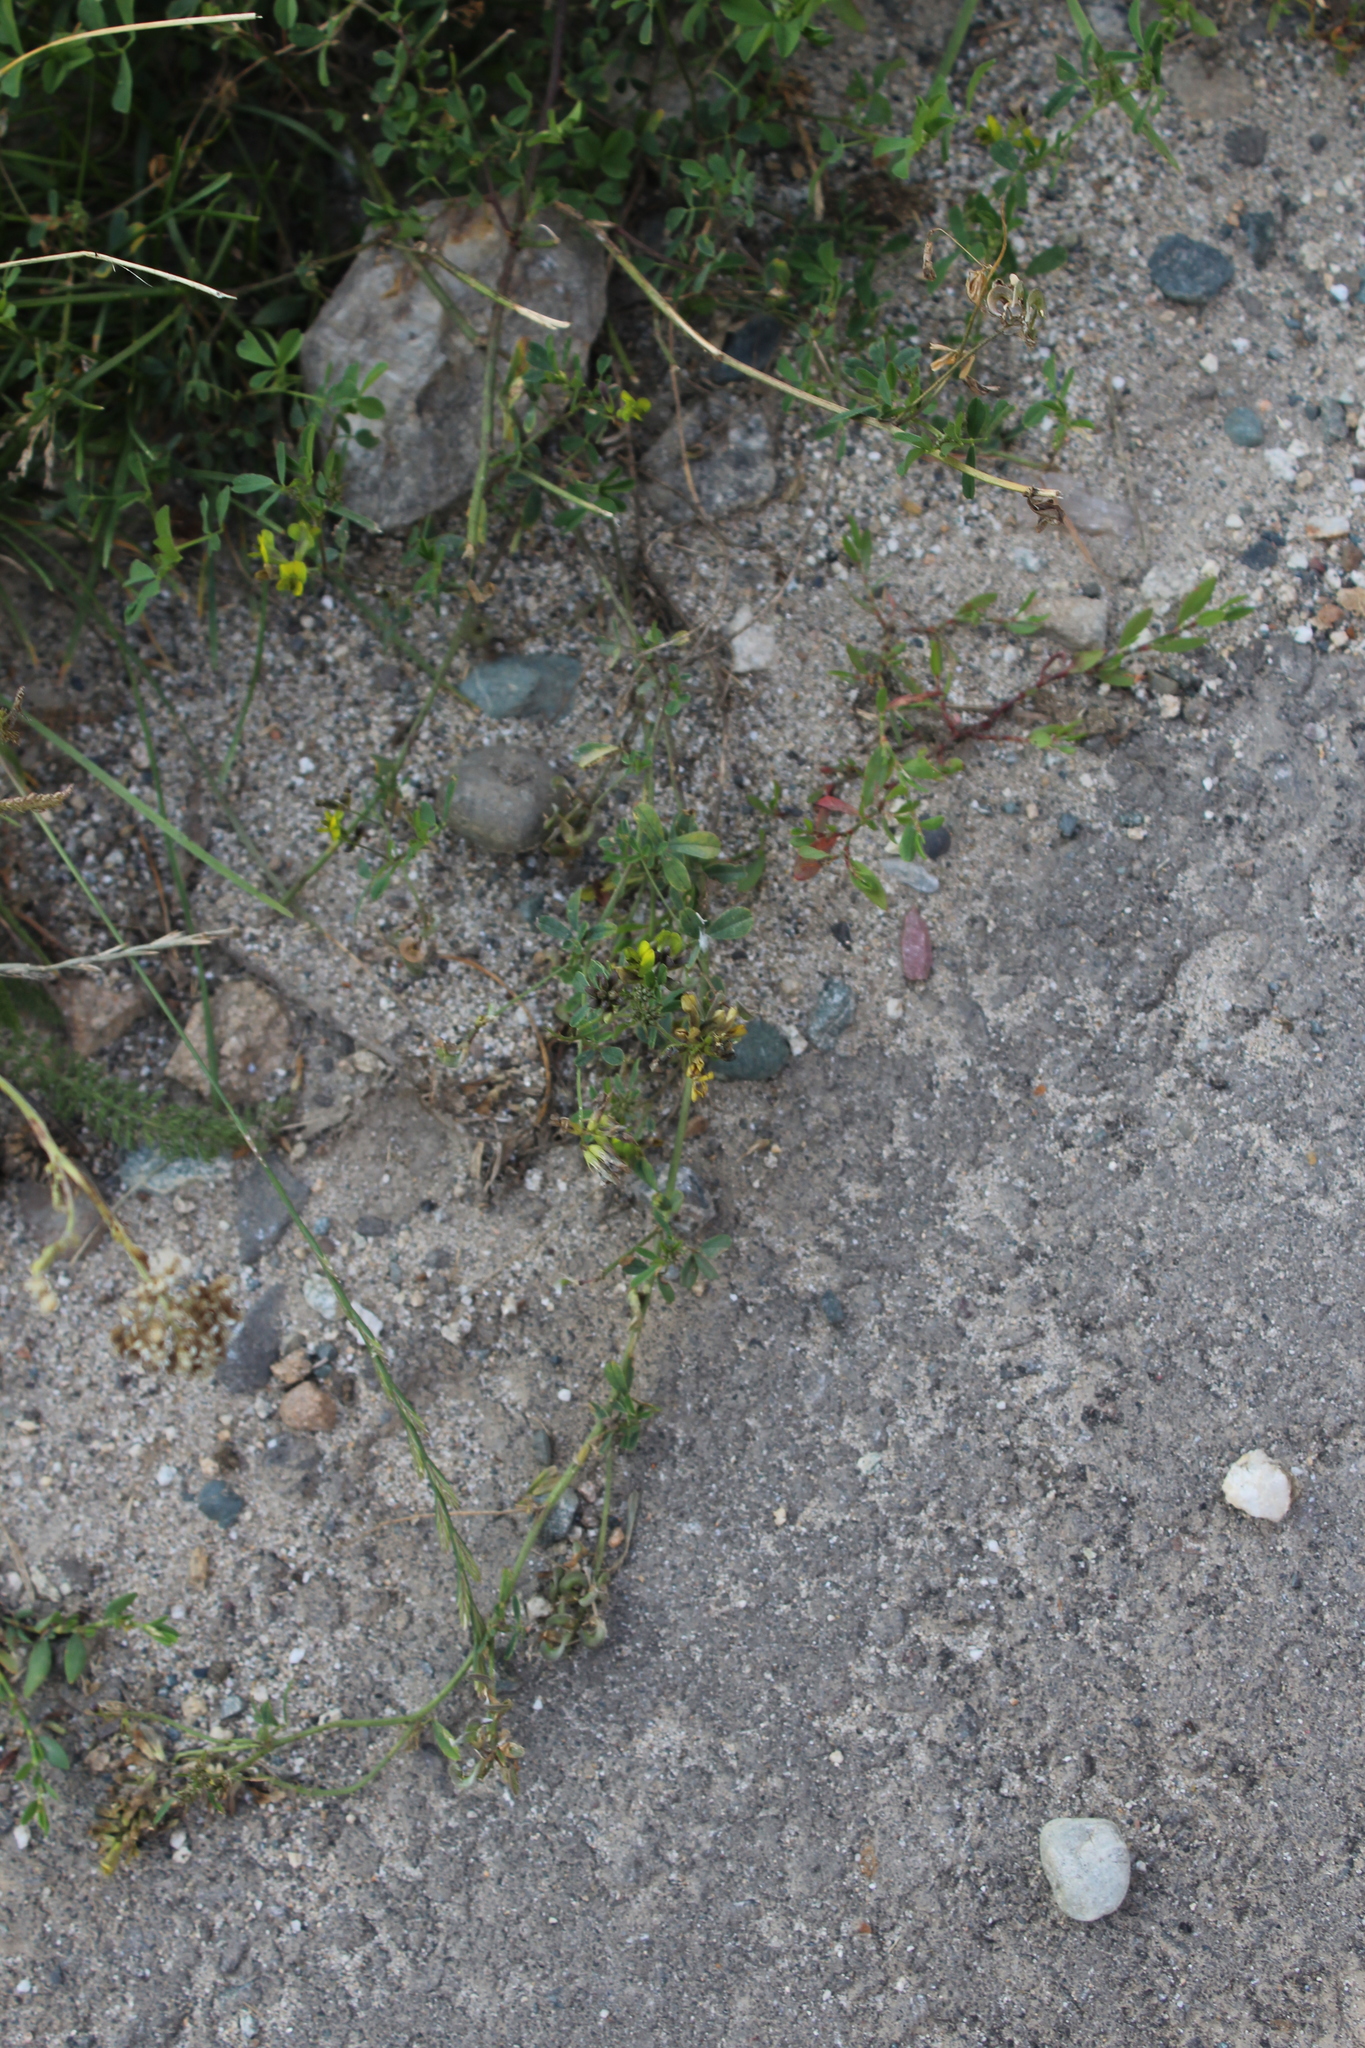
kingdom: Plantae
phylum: Tracheophyta
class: Magnoliopsida
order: Fabales
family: Fabaceae
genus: Medicago
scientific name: Medicago varia
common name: Sand lucerne
